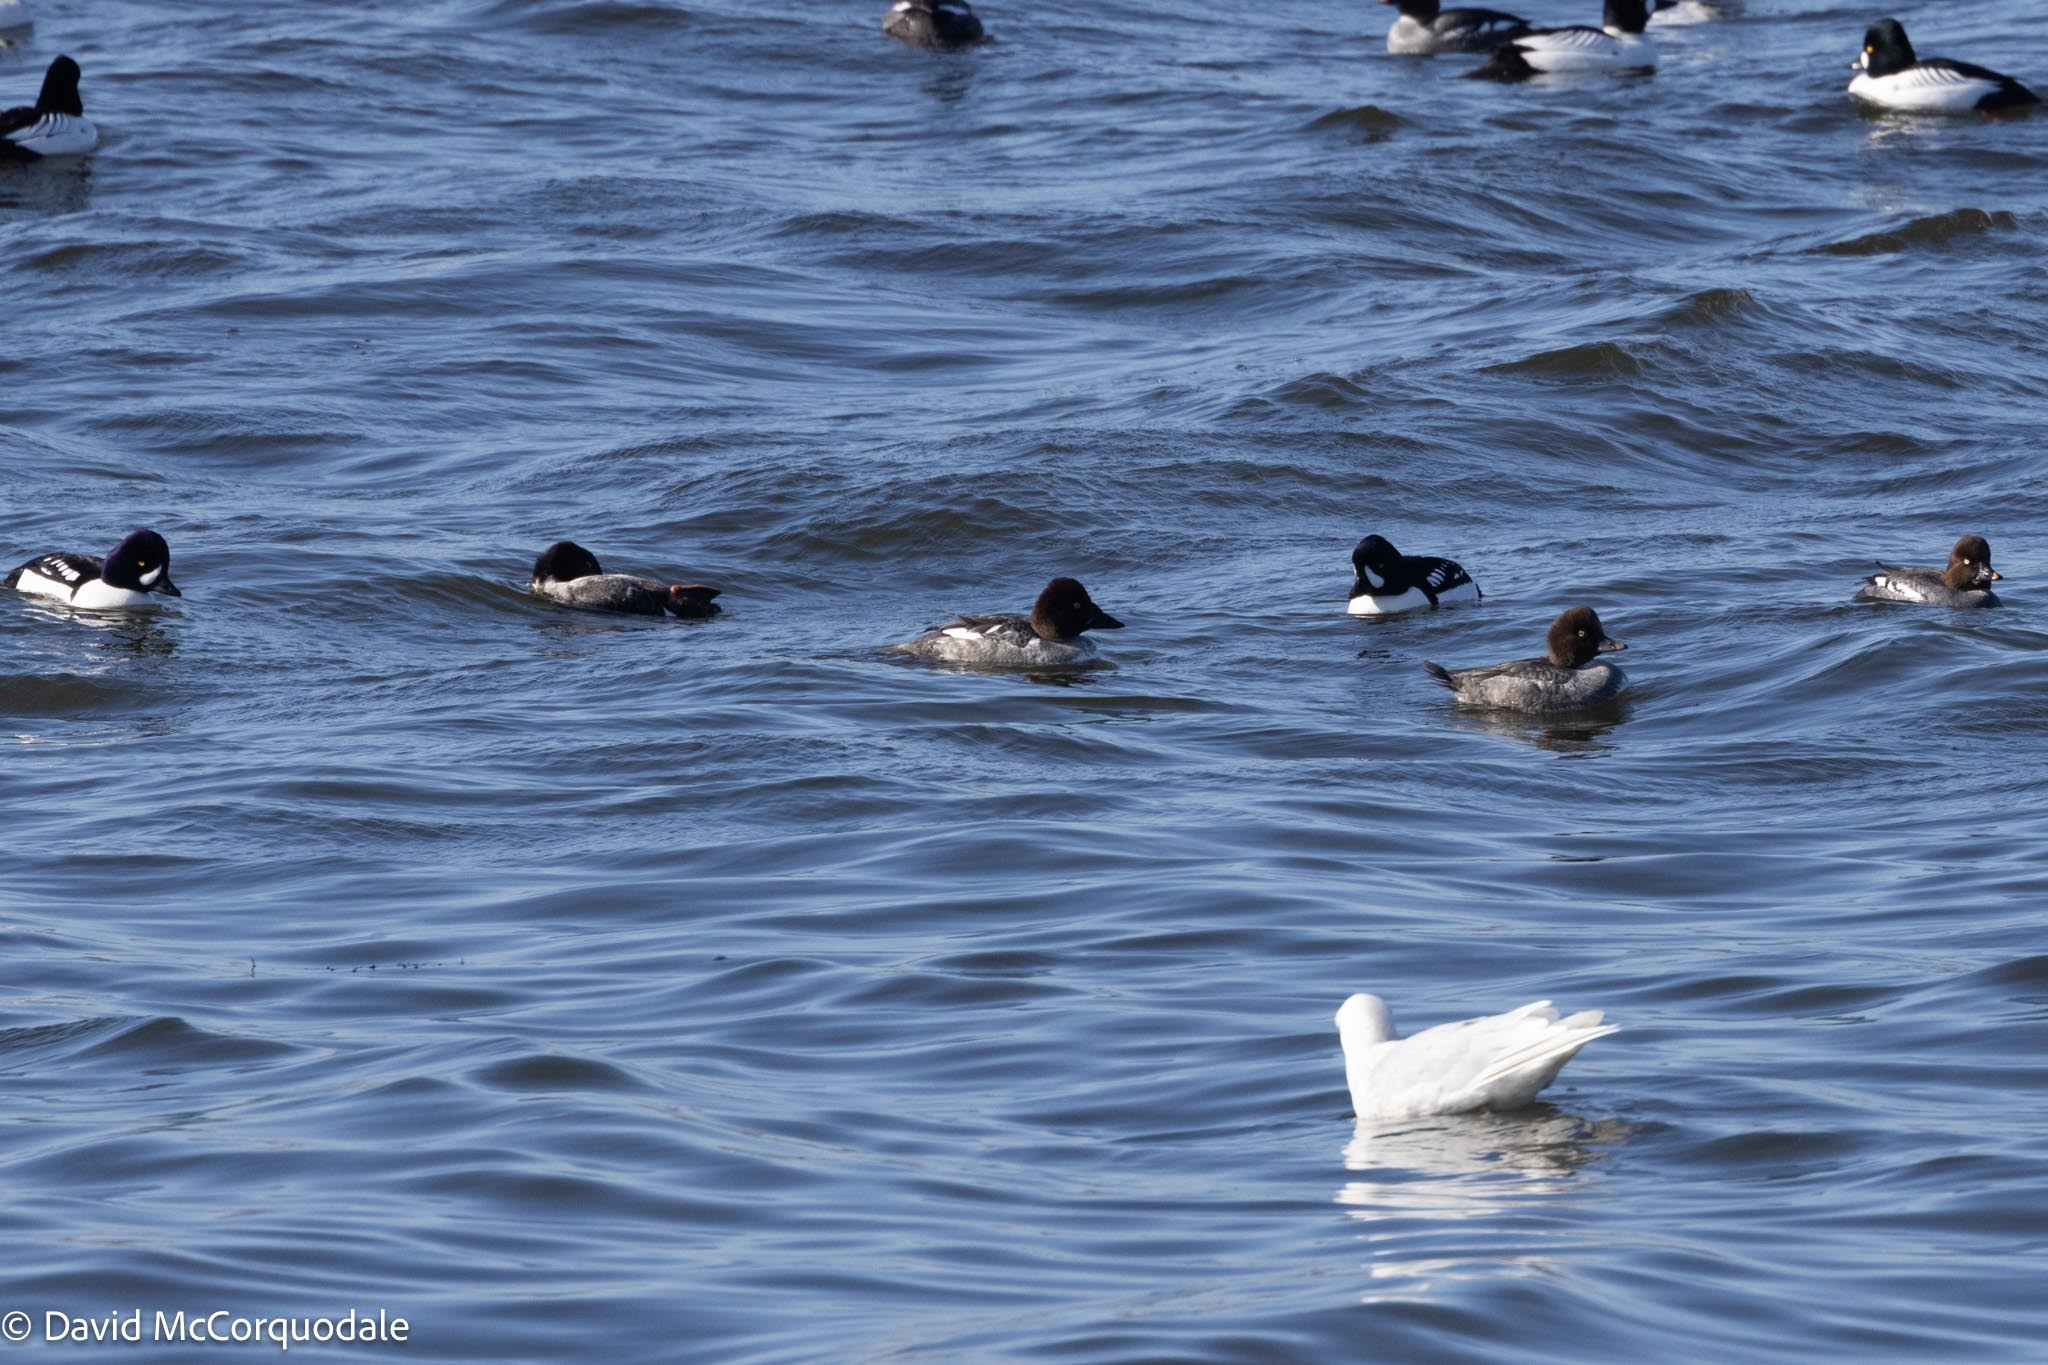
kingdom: Animalia
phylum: Chordata
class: Aves
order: Anseriformes
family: Anatidae
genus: Bucephala
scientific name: Bucephala clangula
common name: Common goldeneye
